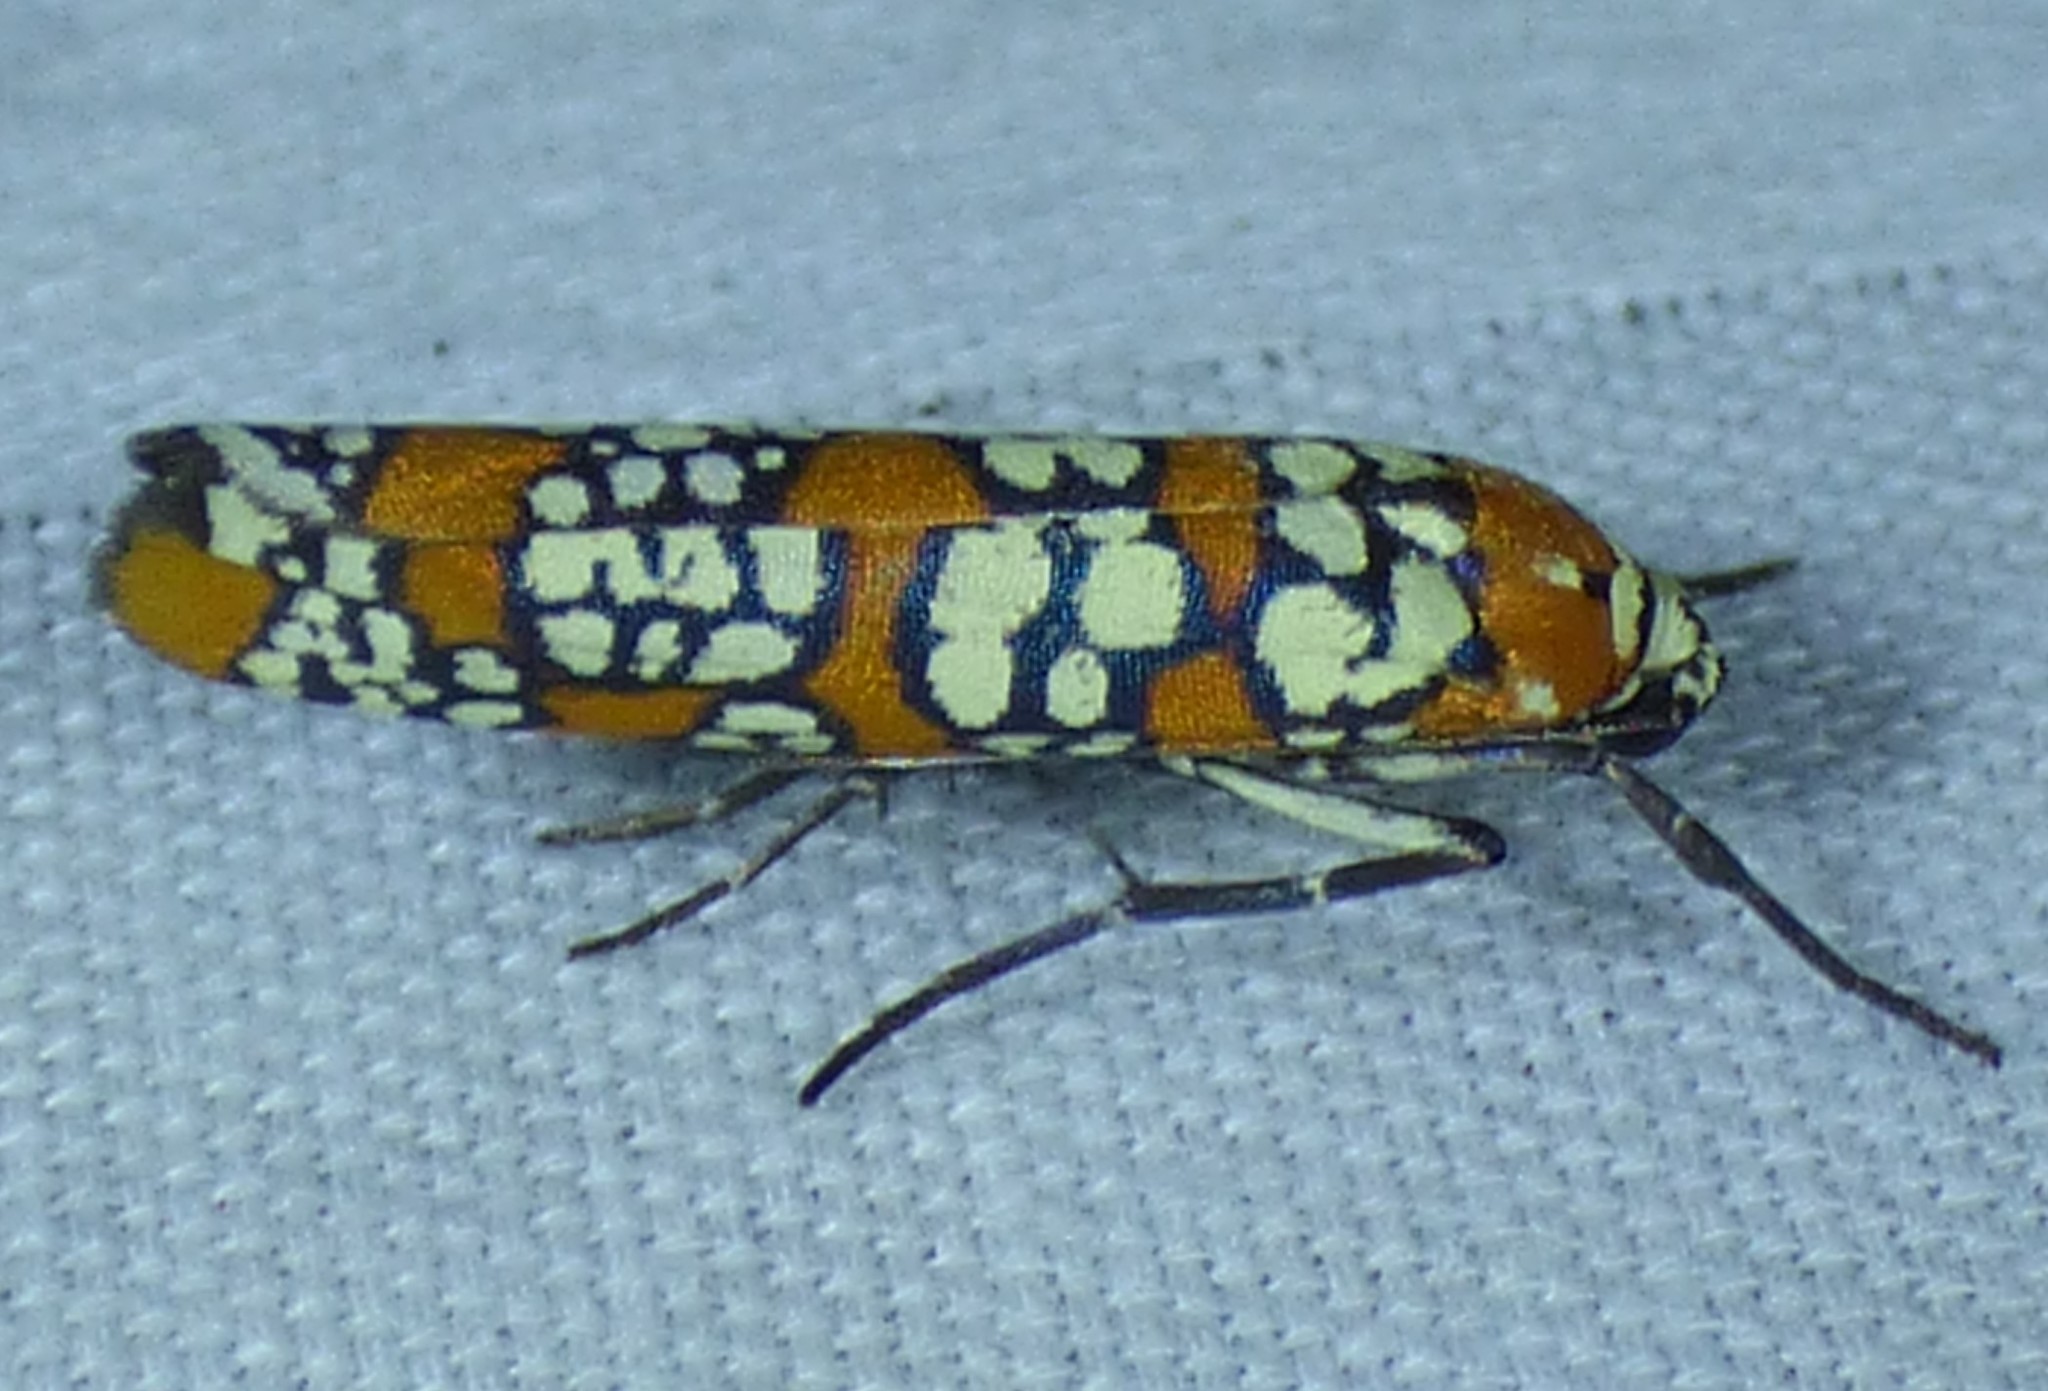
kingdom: Animalia
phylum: Arthropoda
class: Insecta
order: Lepidoptera
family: Attevidae
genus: Atteva
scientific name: Atteva punctella
